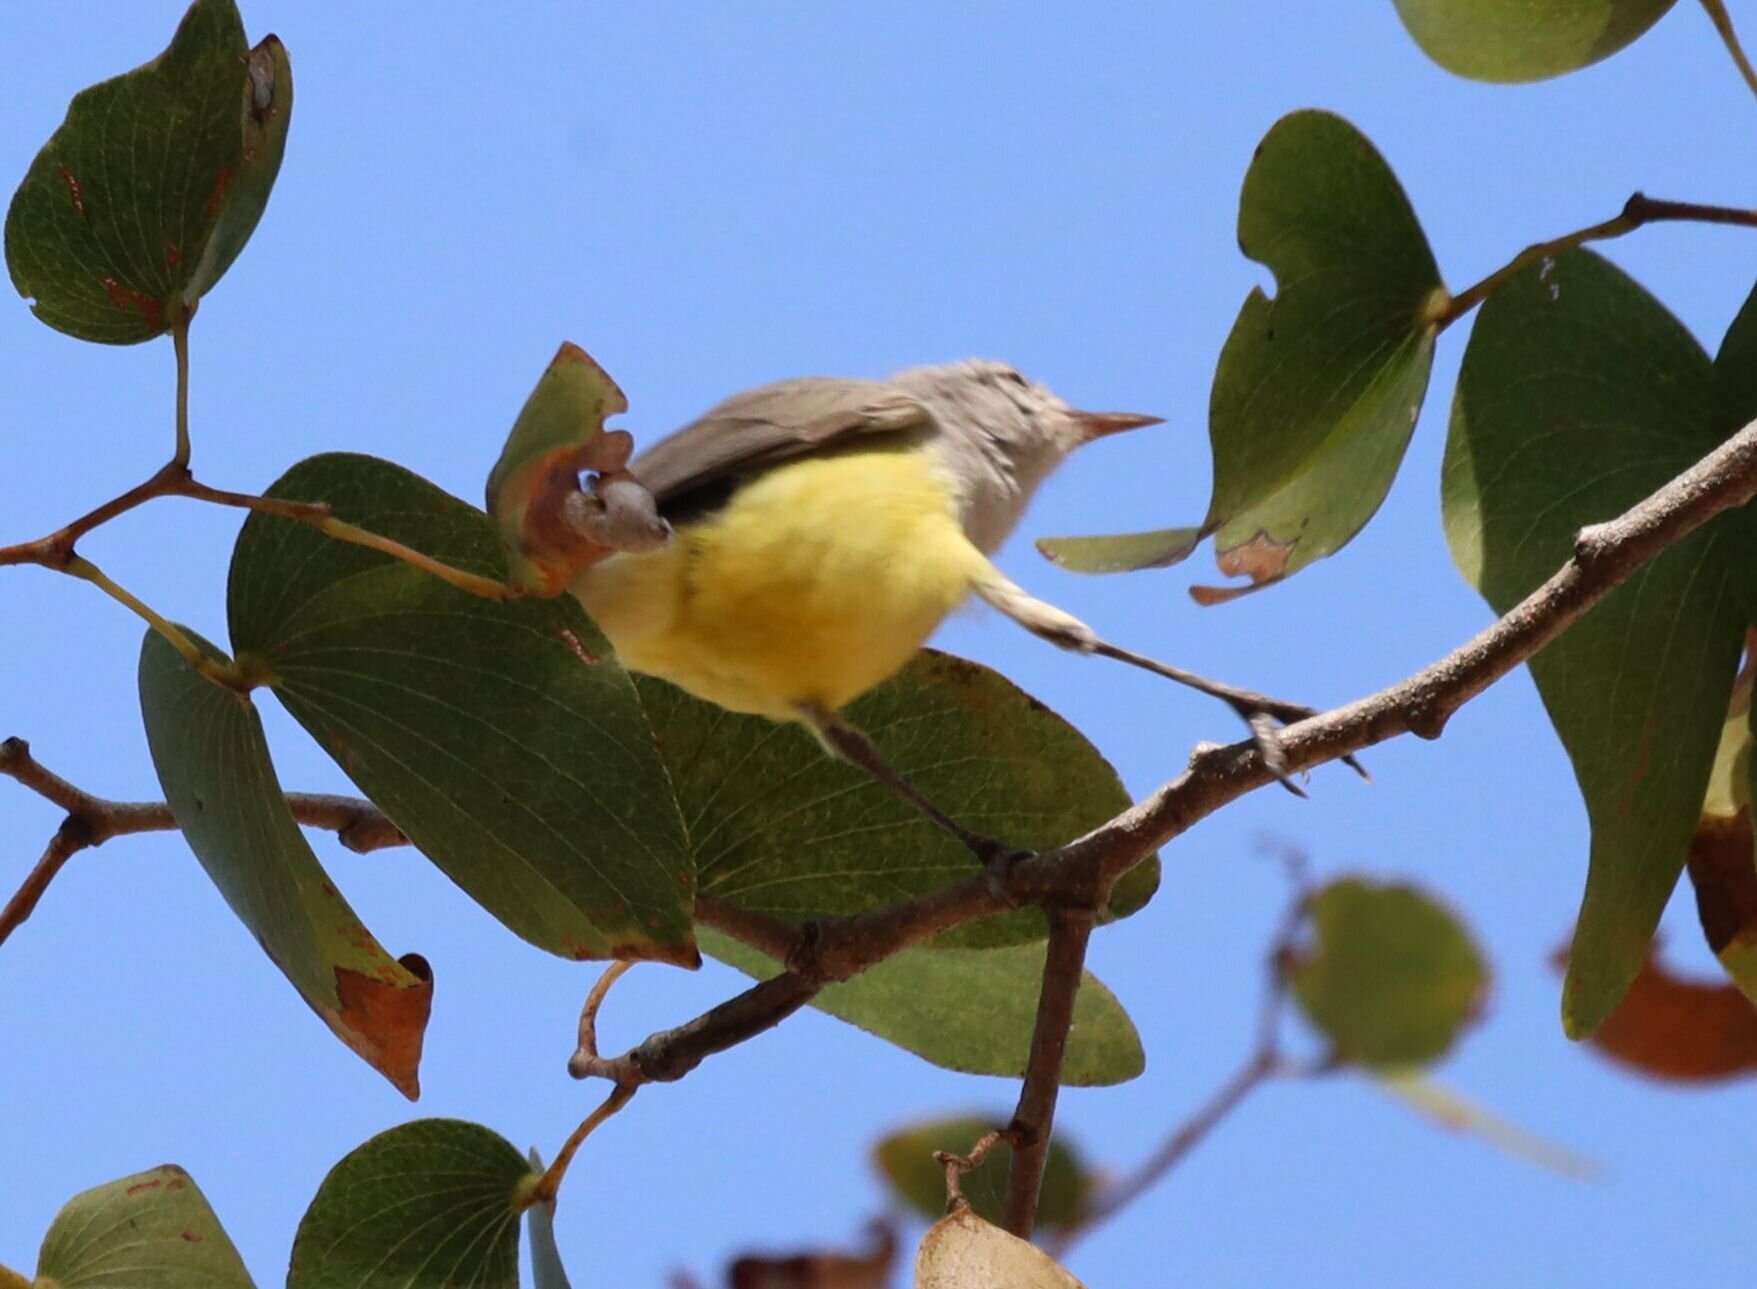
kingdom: Animalia
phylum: Chordata
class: Aves
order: Passeriformes
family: Cisticolidae
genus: Eremomela
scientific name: Eremomela icteropygialis
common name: Yellow-bellied eremomela
